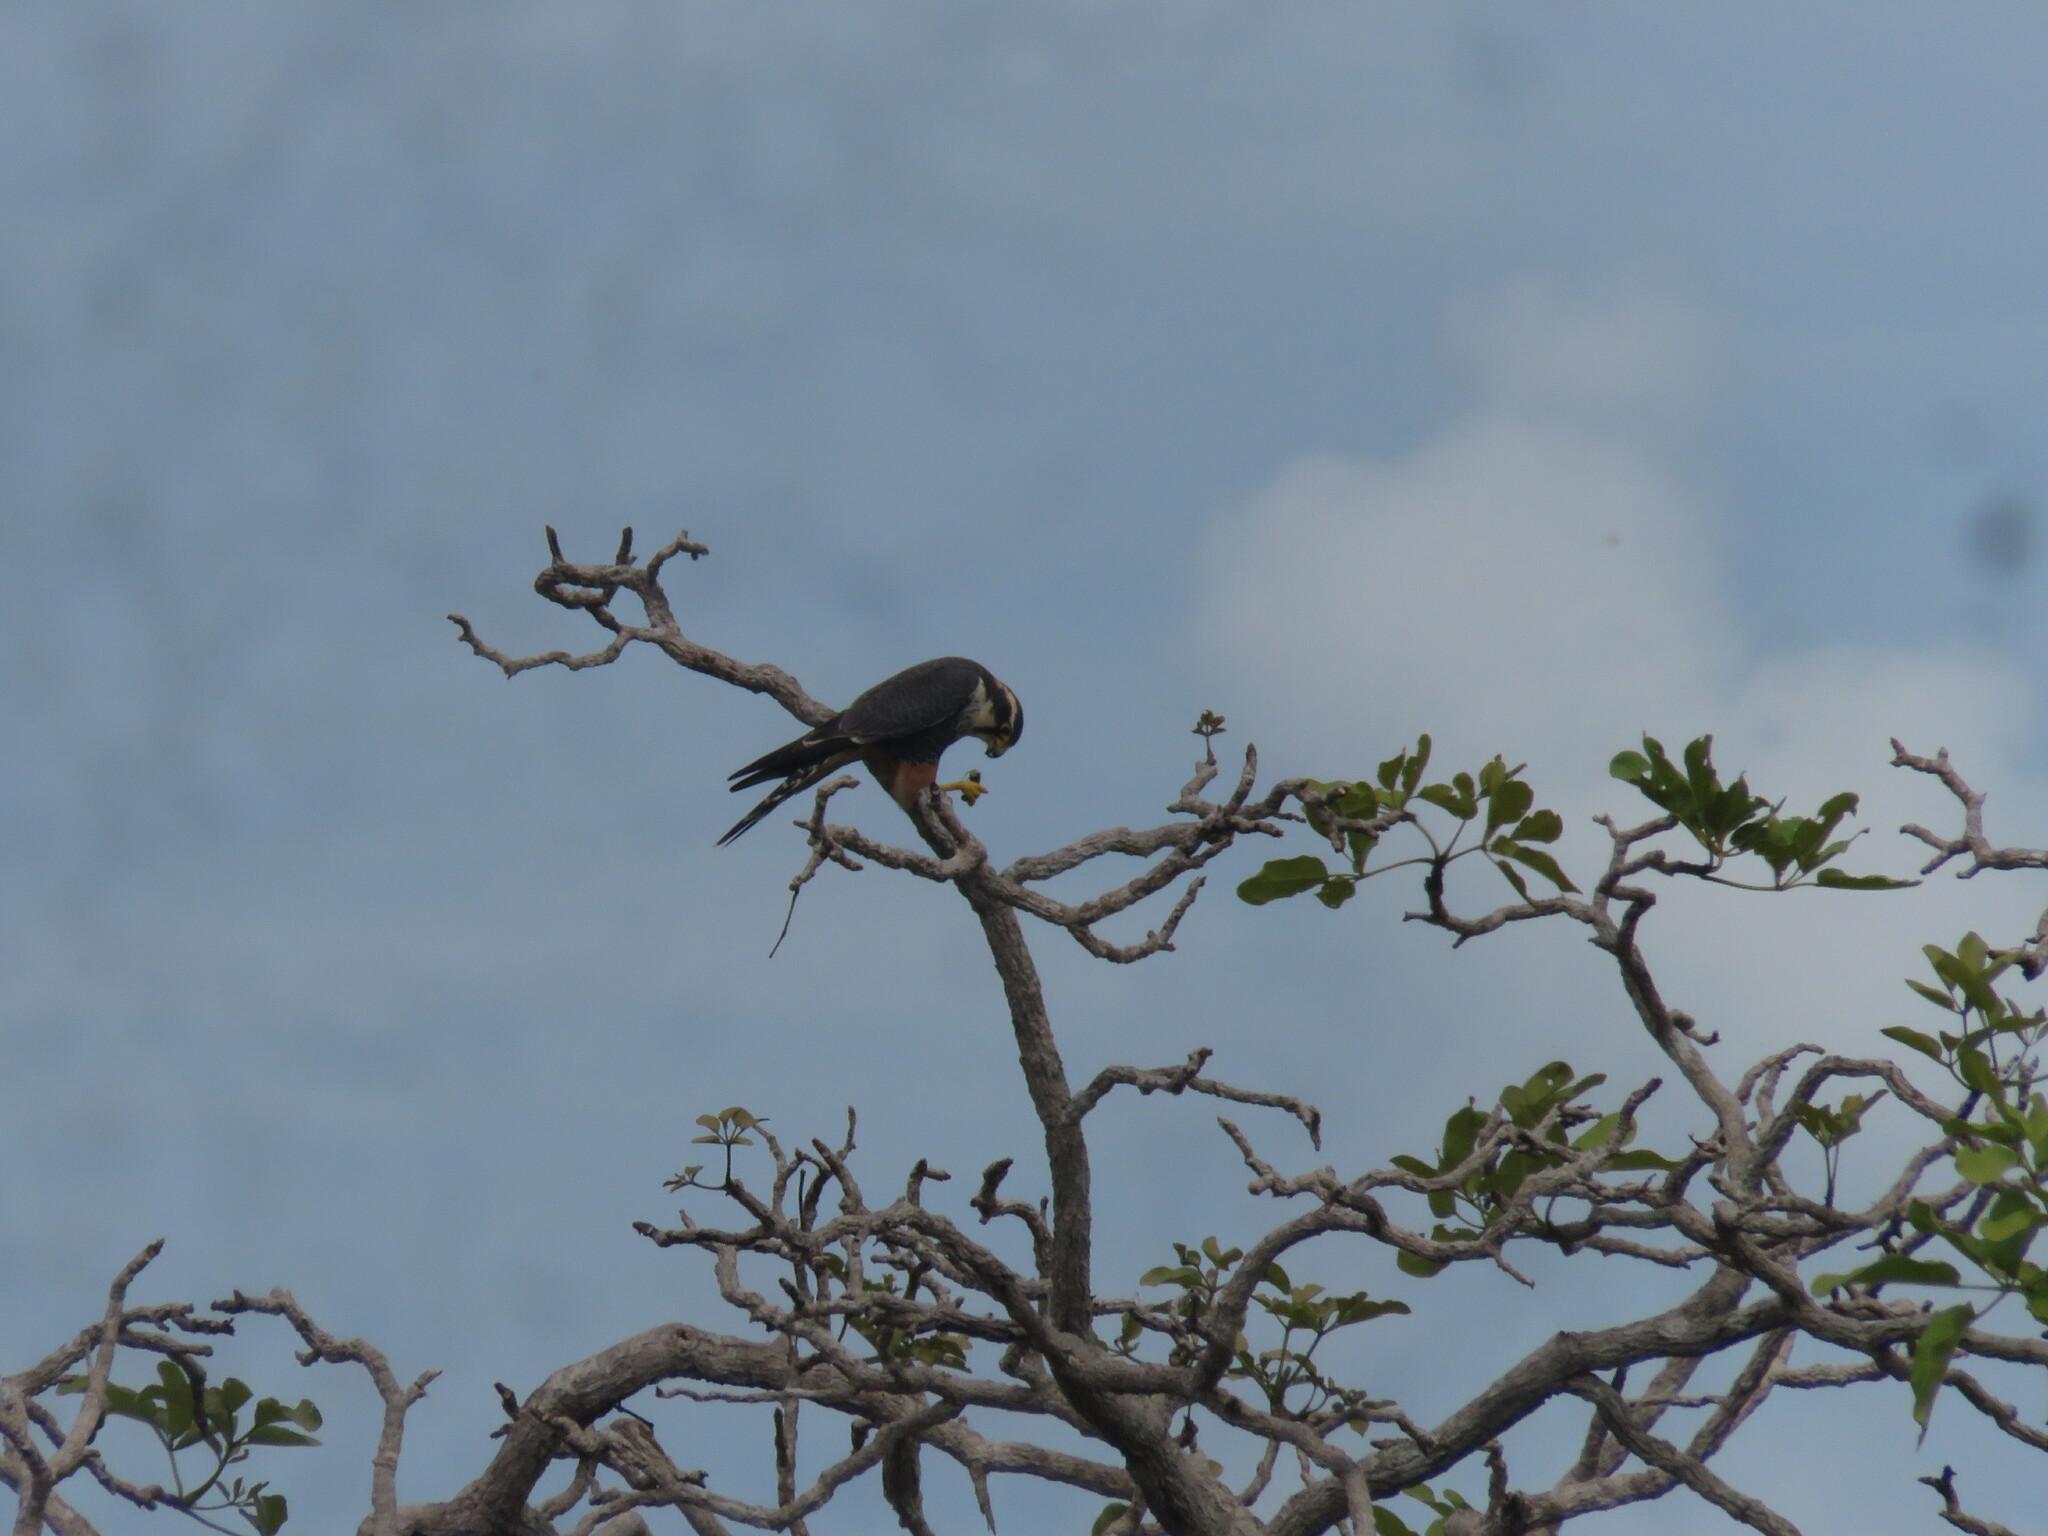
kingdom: Animalia
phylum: Chordata
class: Aves
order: Falconiformes
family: Falconidae
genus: Falco
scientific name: Falco femoralis
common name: Aplomado falcon
